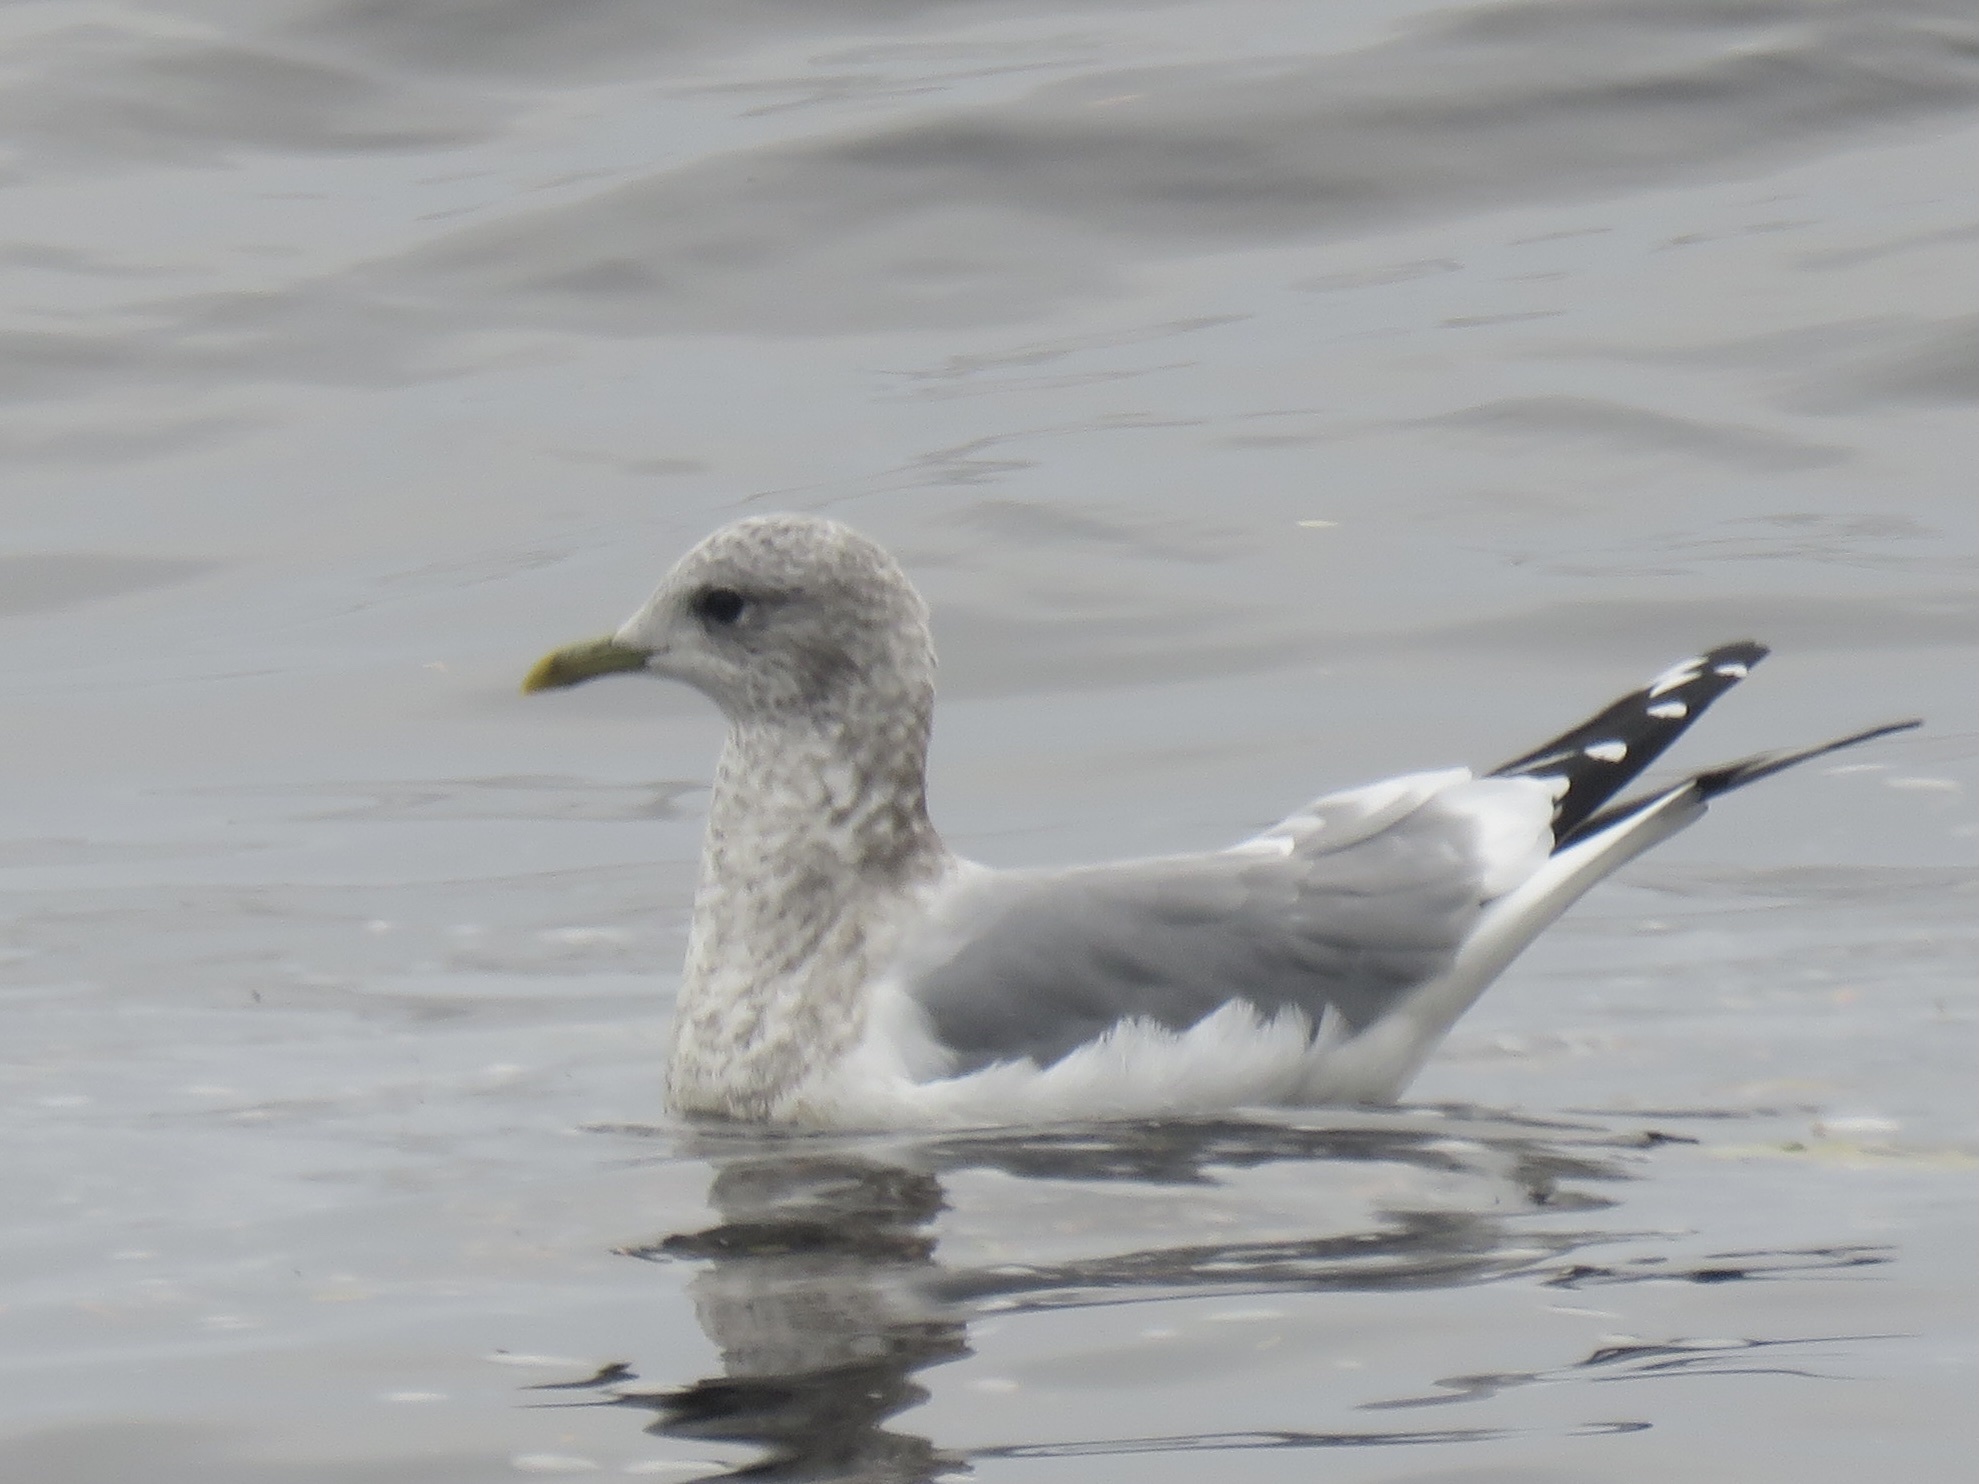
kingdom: Animalia
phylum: Chordata
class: Aves
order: Charadriiformes
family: Laridae
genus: Larus
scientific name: Larus brachyrhynchus
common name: Short-billed gull
